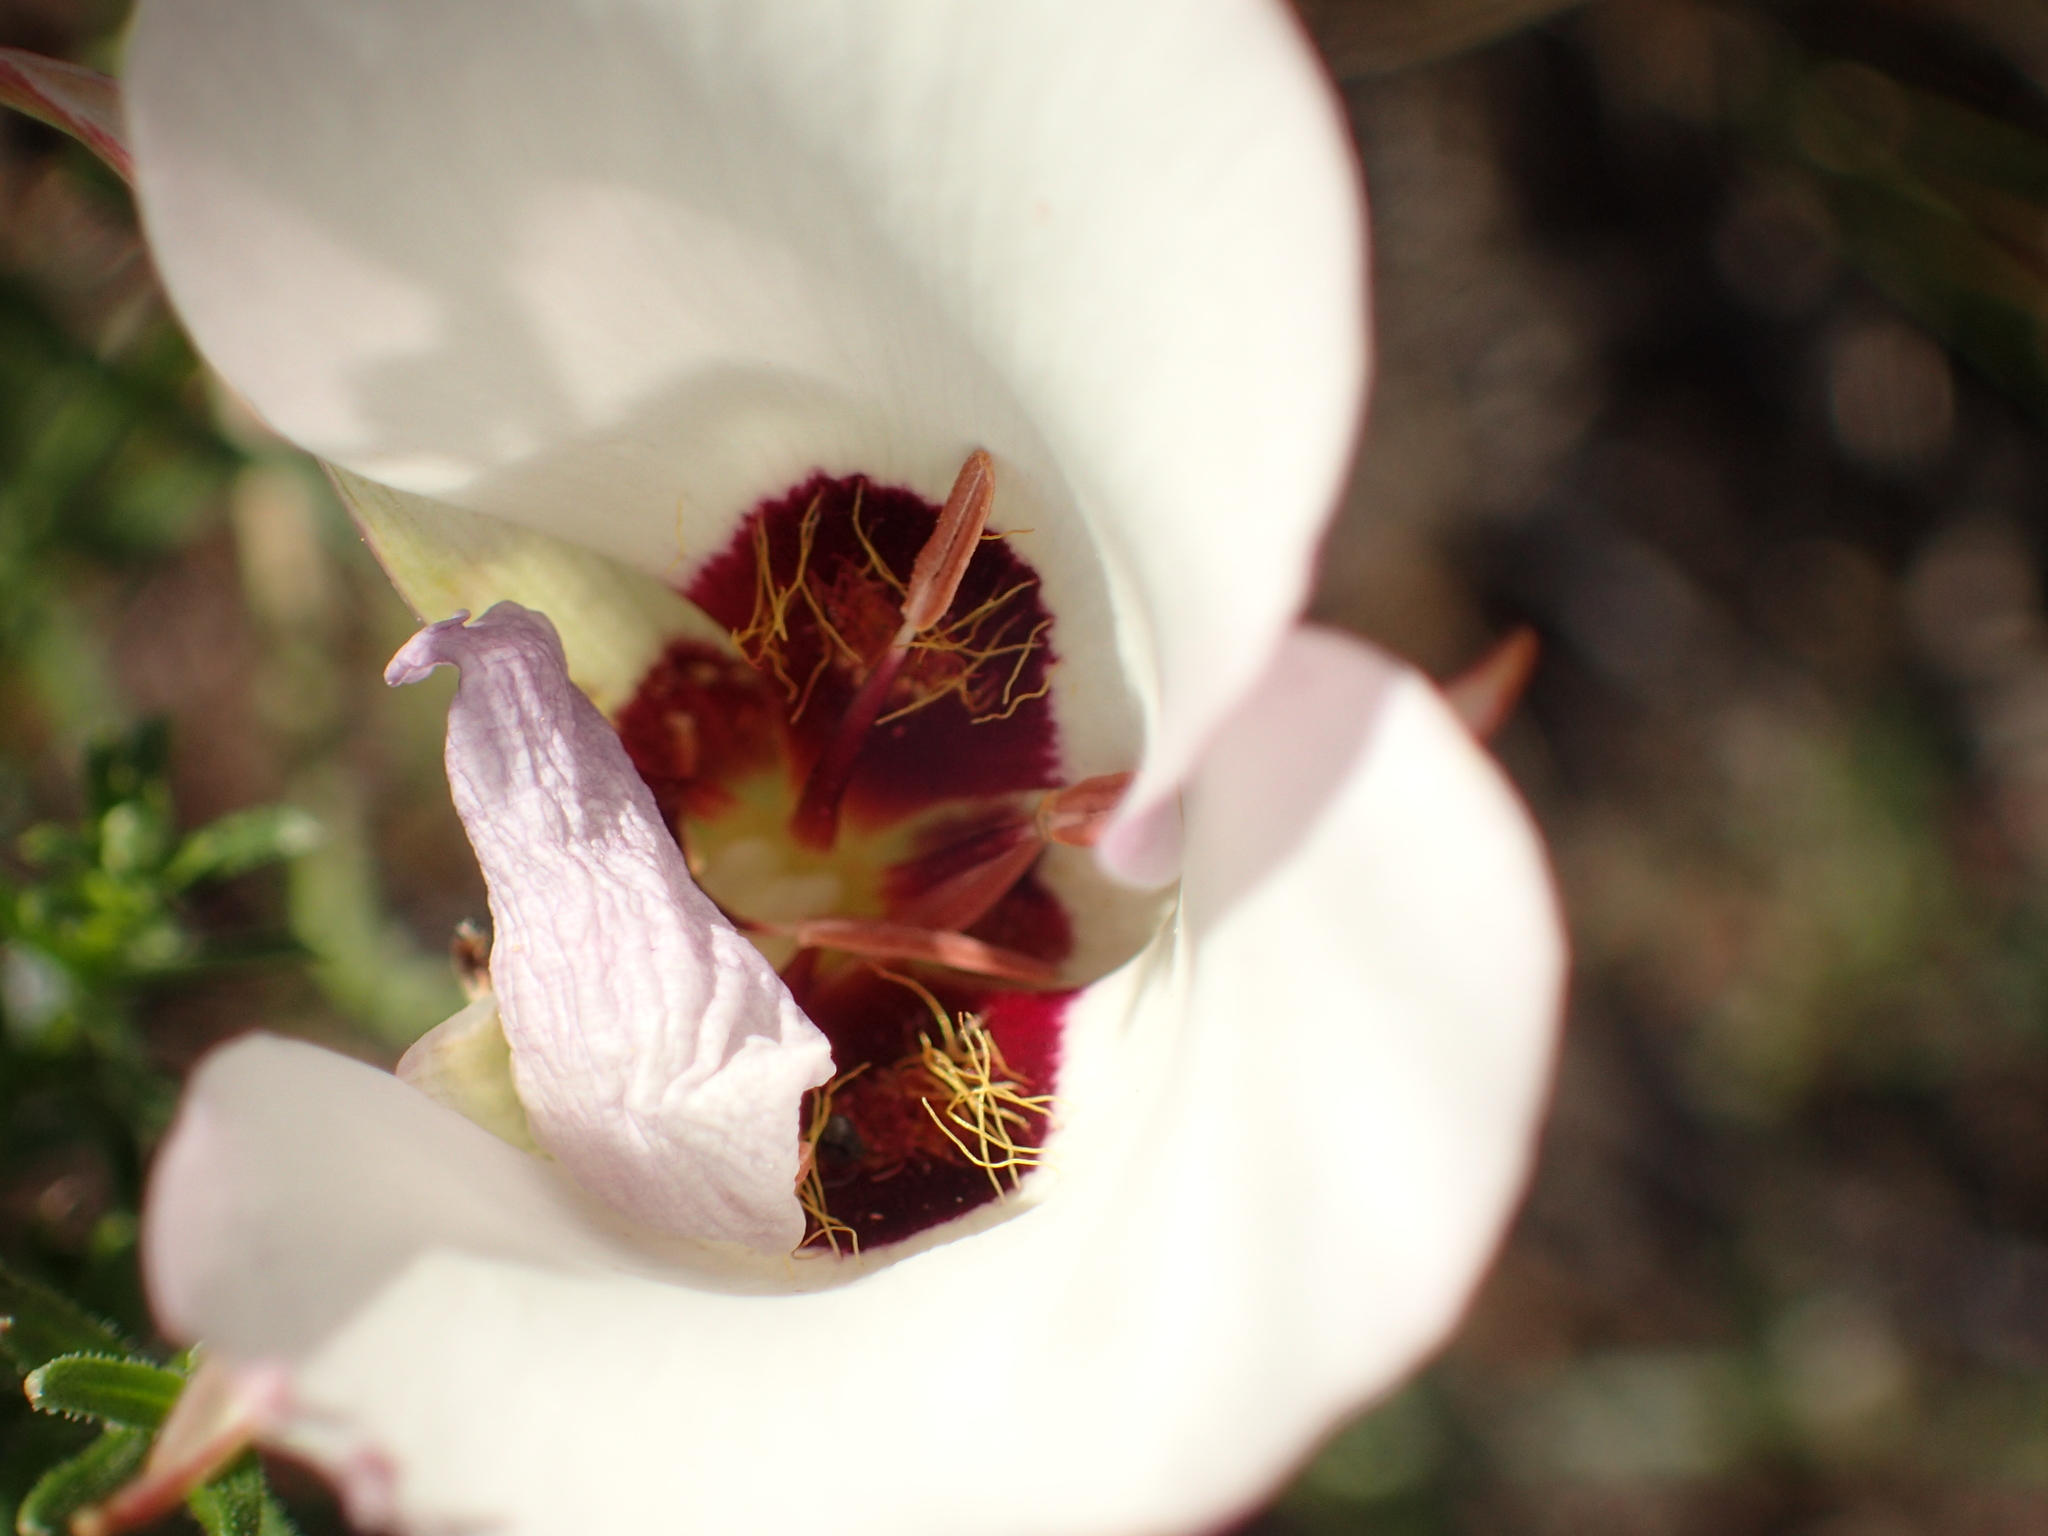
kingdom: Plantae
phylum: Tracheophyta
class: Liliopsida
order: Liliales
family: Liliaceae
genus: Calochortus
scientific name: Calochortus catalinae
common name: Catalina mariposa-lily
